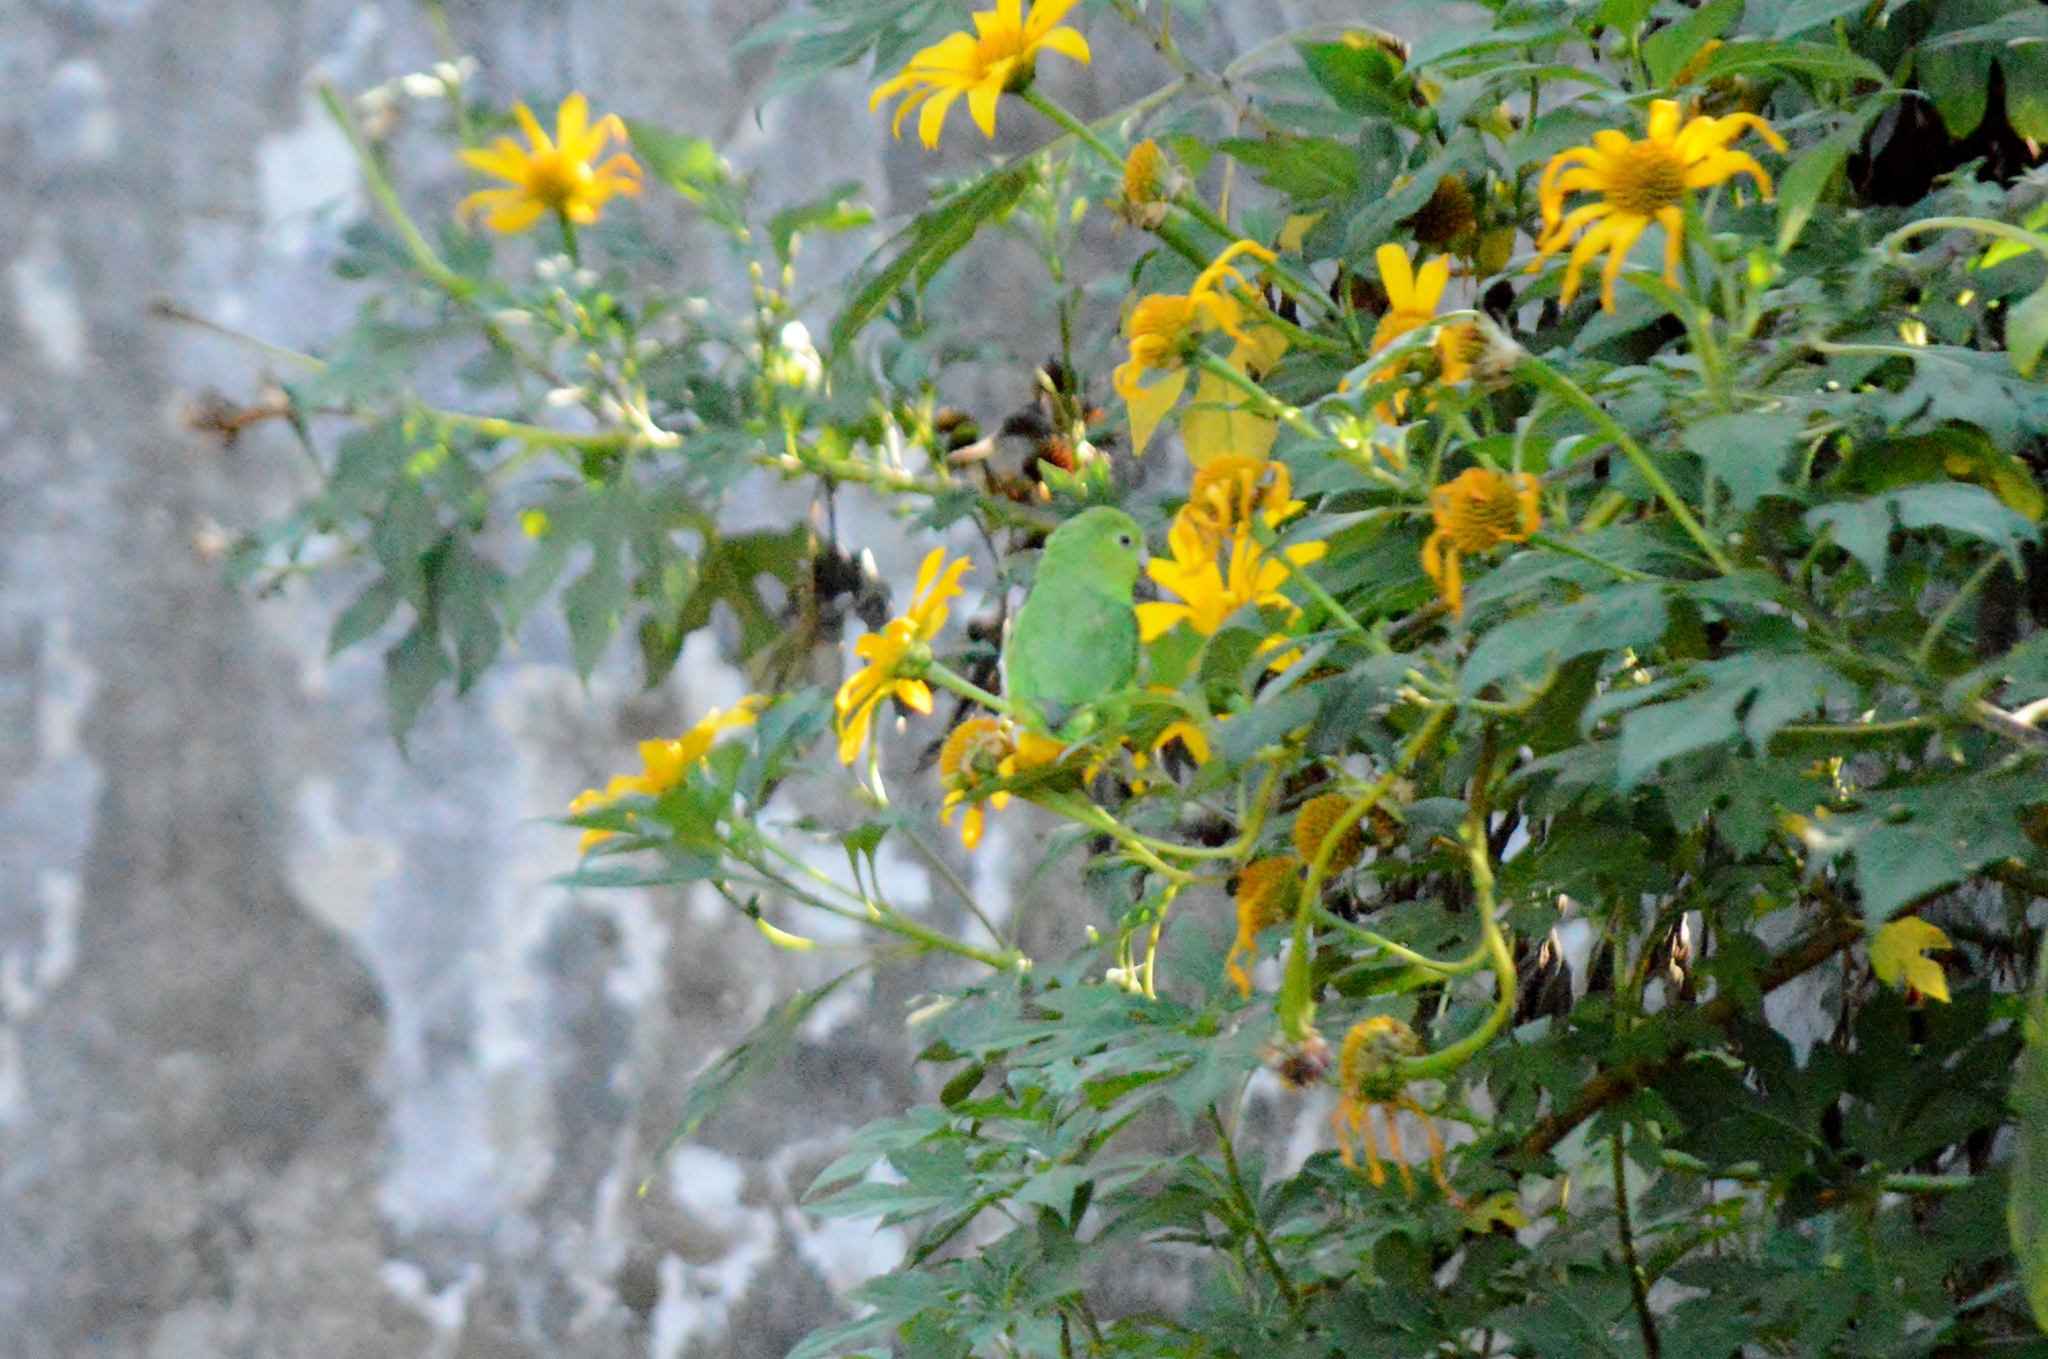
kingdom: Animalia
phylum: Chordata
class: Aves
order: Psittaciformes
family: Psittacidae
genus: Forpus
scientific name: Forpus xanthopterygius
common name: Blue-winged parrotlet
